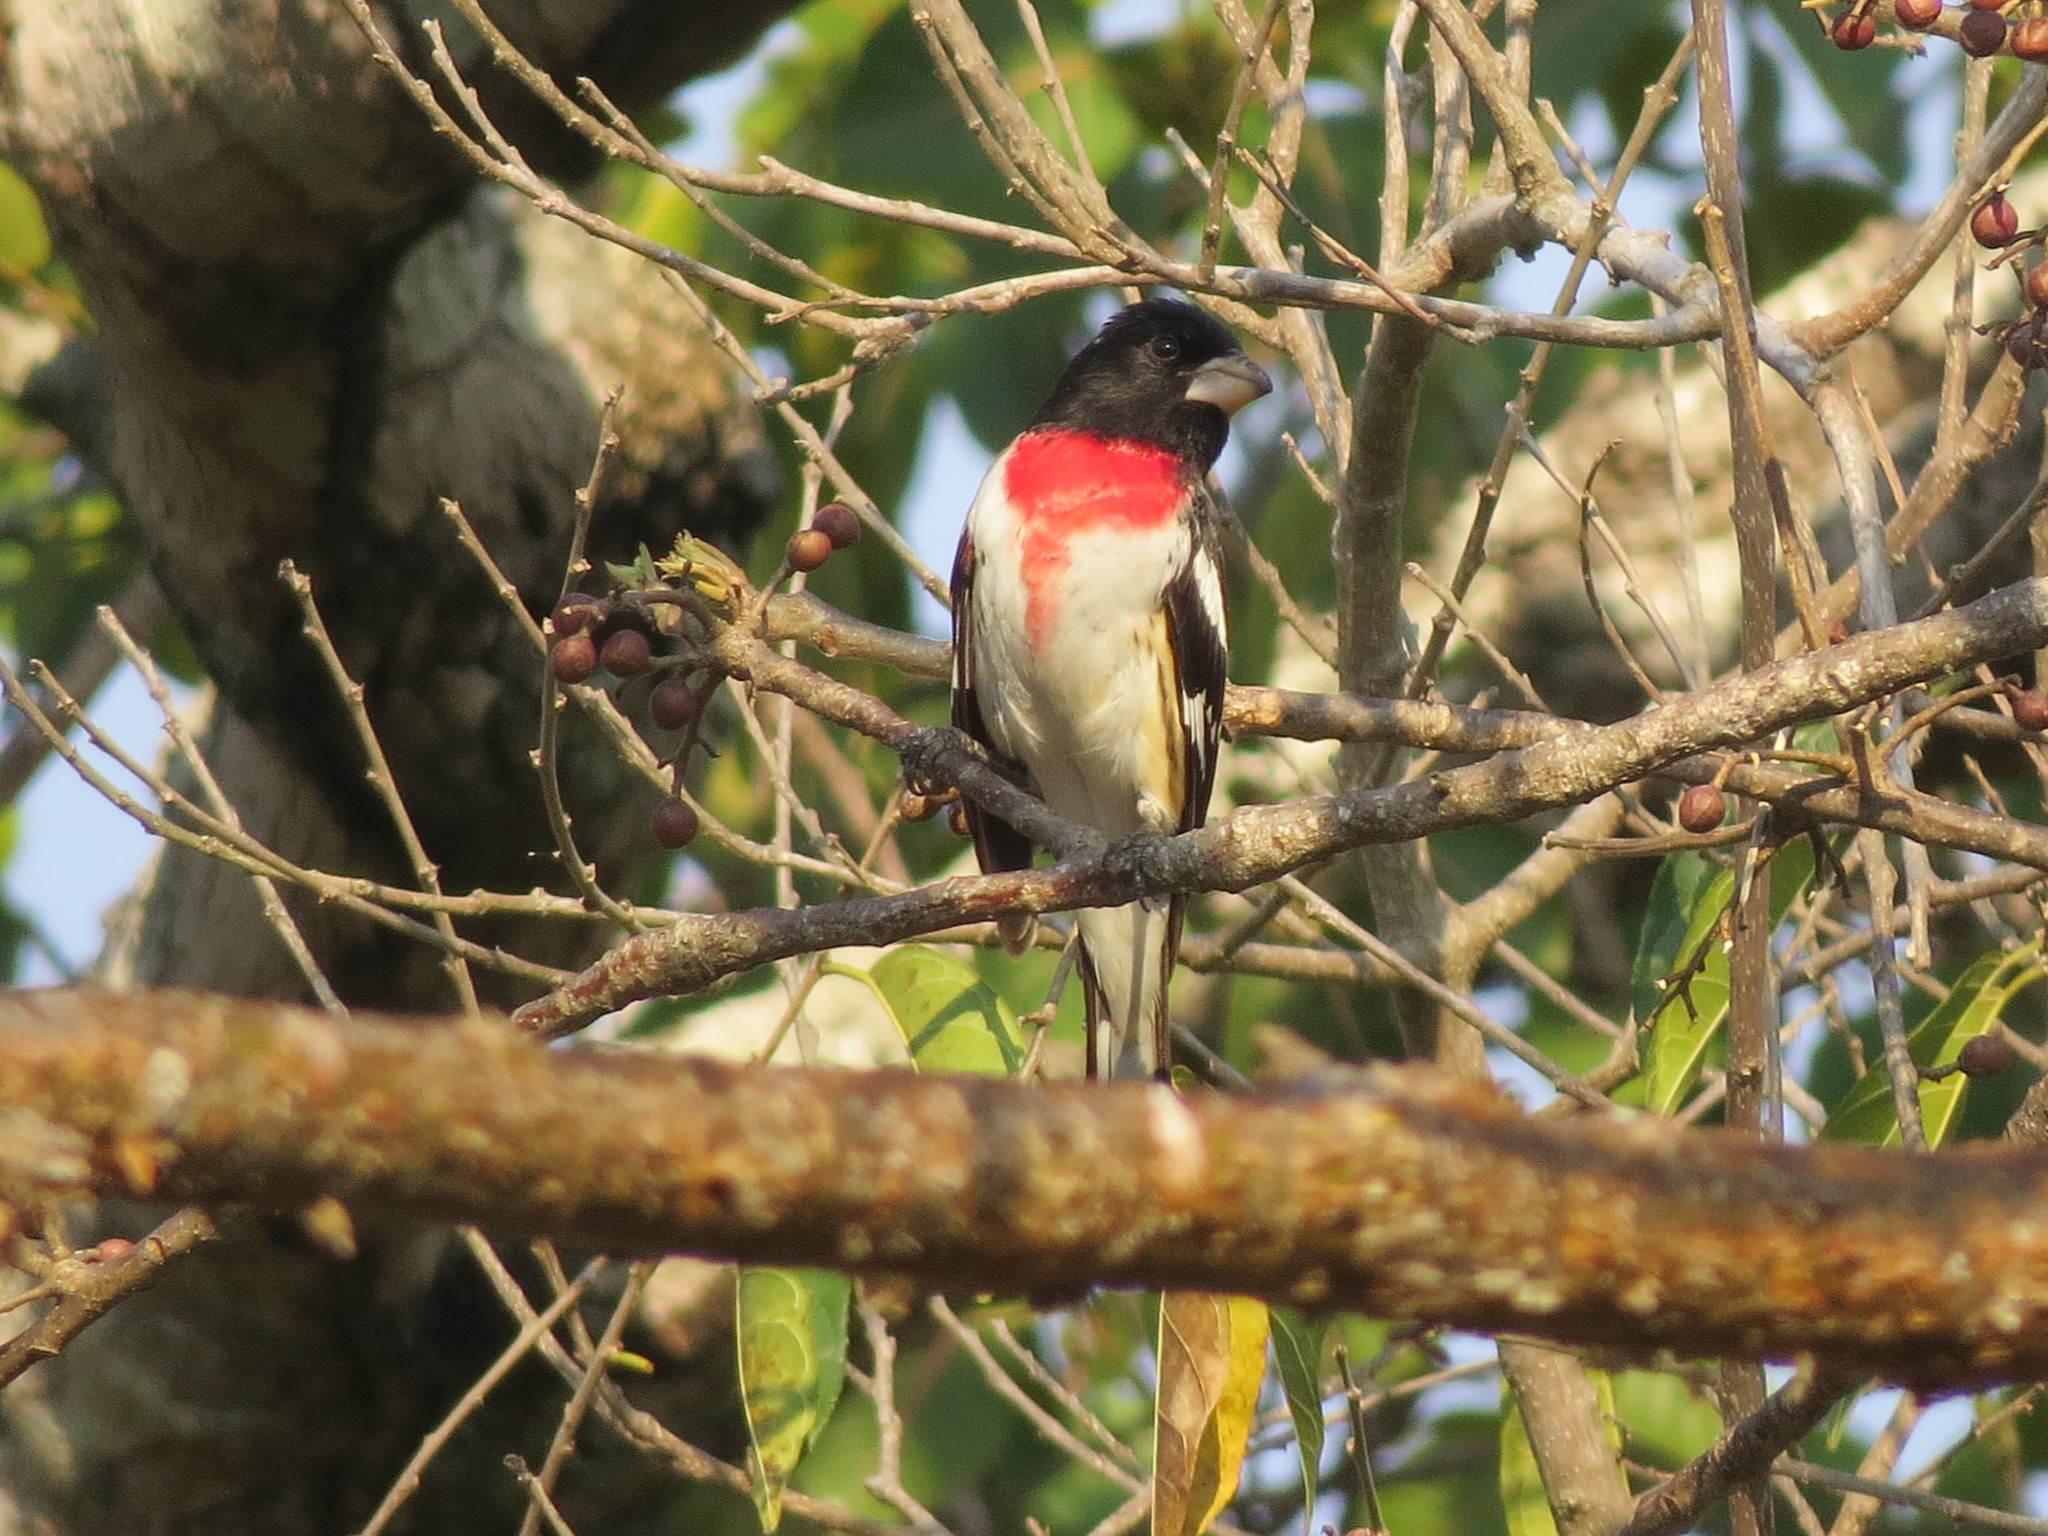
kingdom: Animalia
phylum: Chordata
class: Aves
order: Passeriformes
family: Cardinalidae
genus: Pheucticus
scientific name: Pheucticus ludovicianus
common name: Rose-breasted grosbeak
